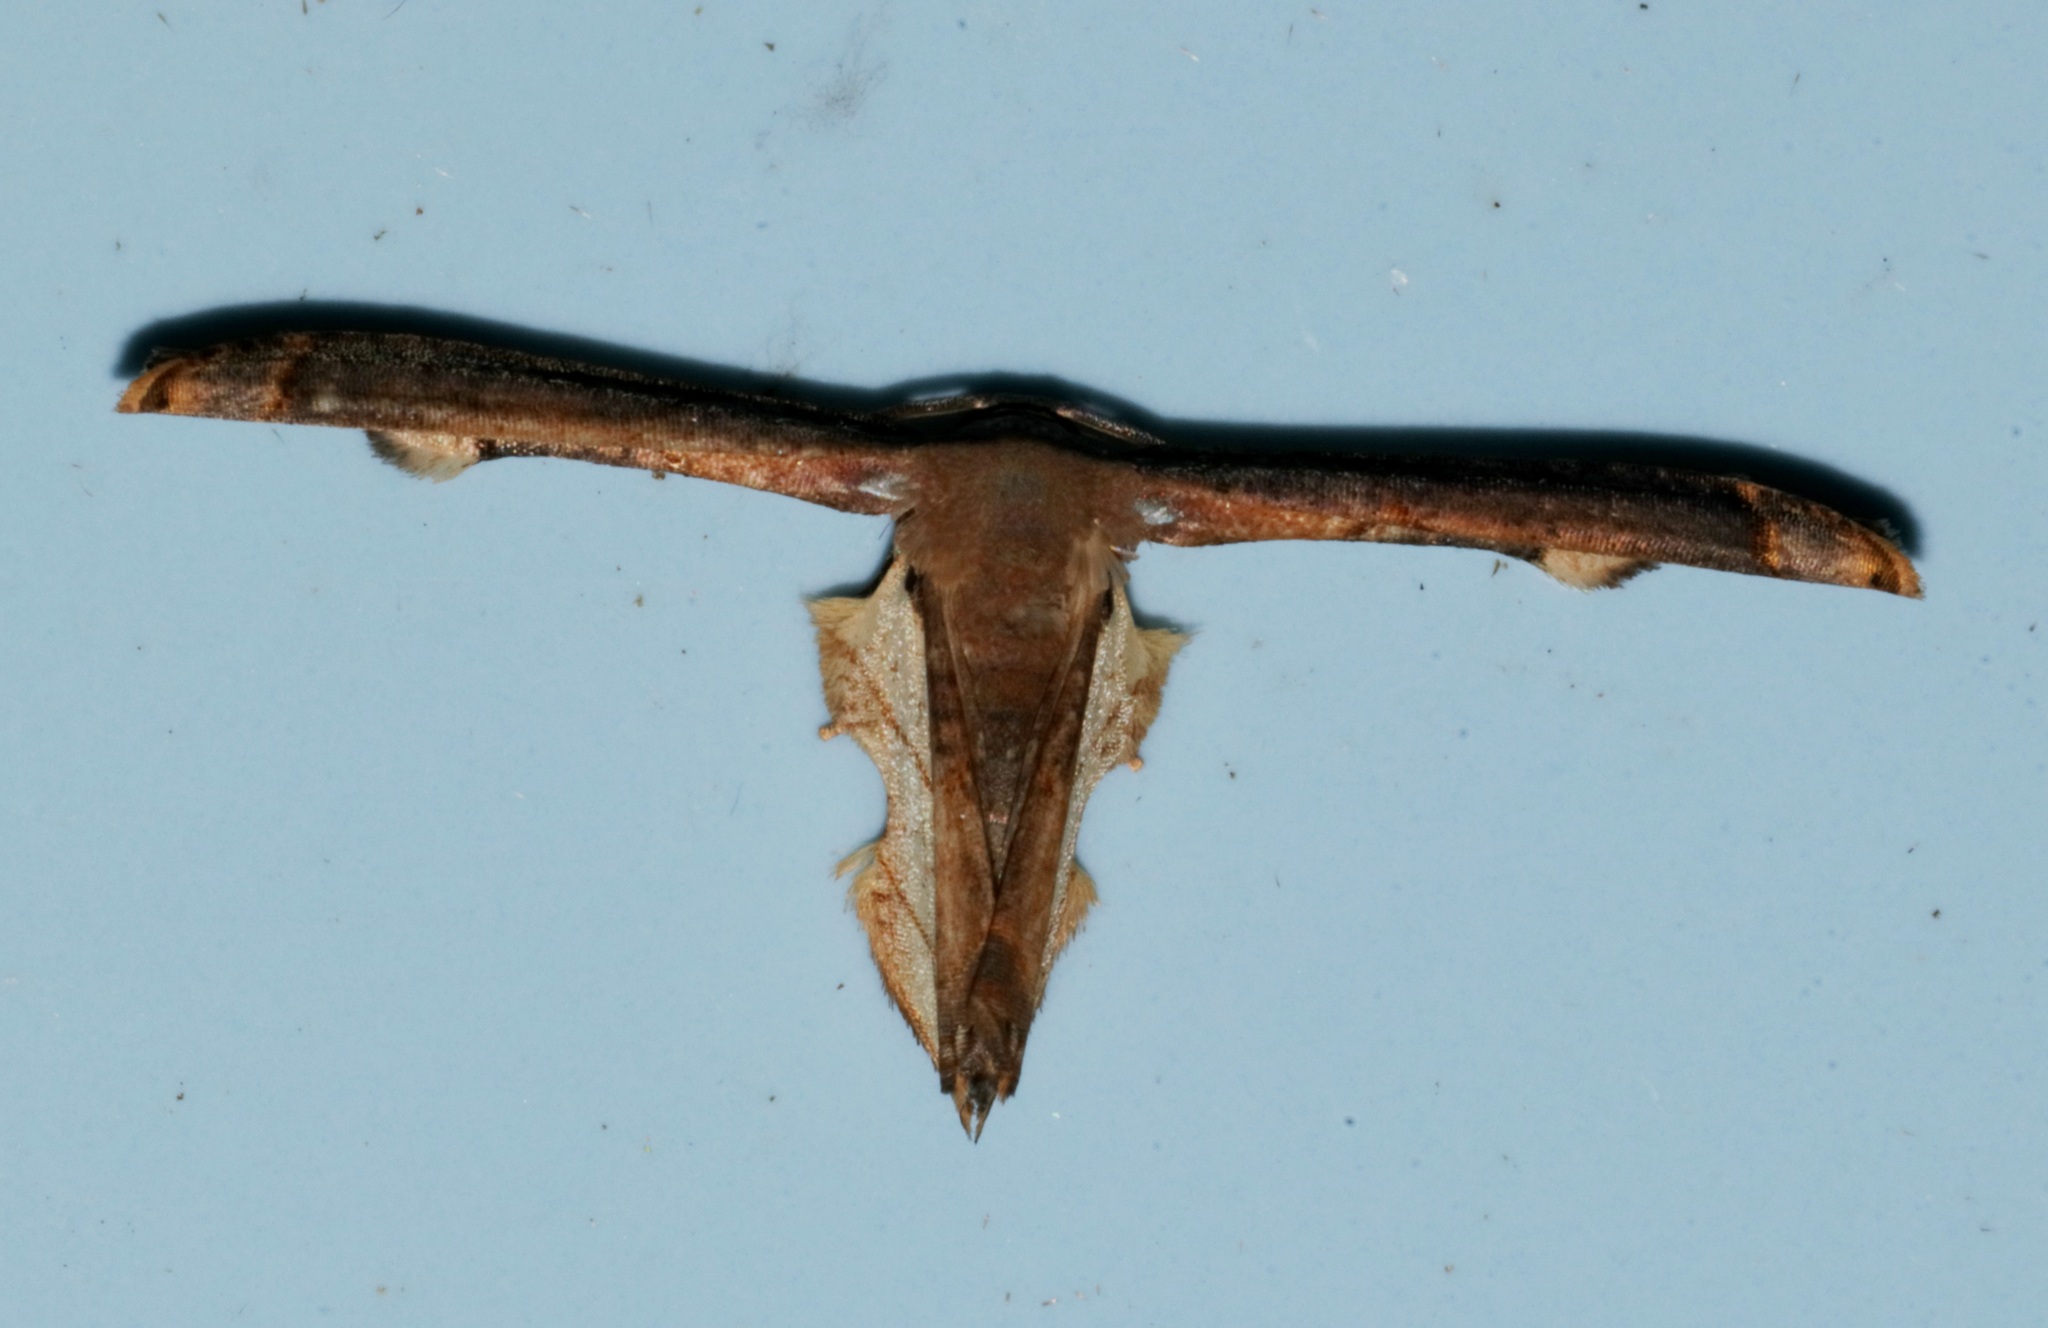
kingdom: Animalia
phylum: Arthropoda
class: Insecta
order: Lepidoptera
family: Uraniidae
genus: Warreniplema
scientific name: Warreniplema fumicosta
